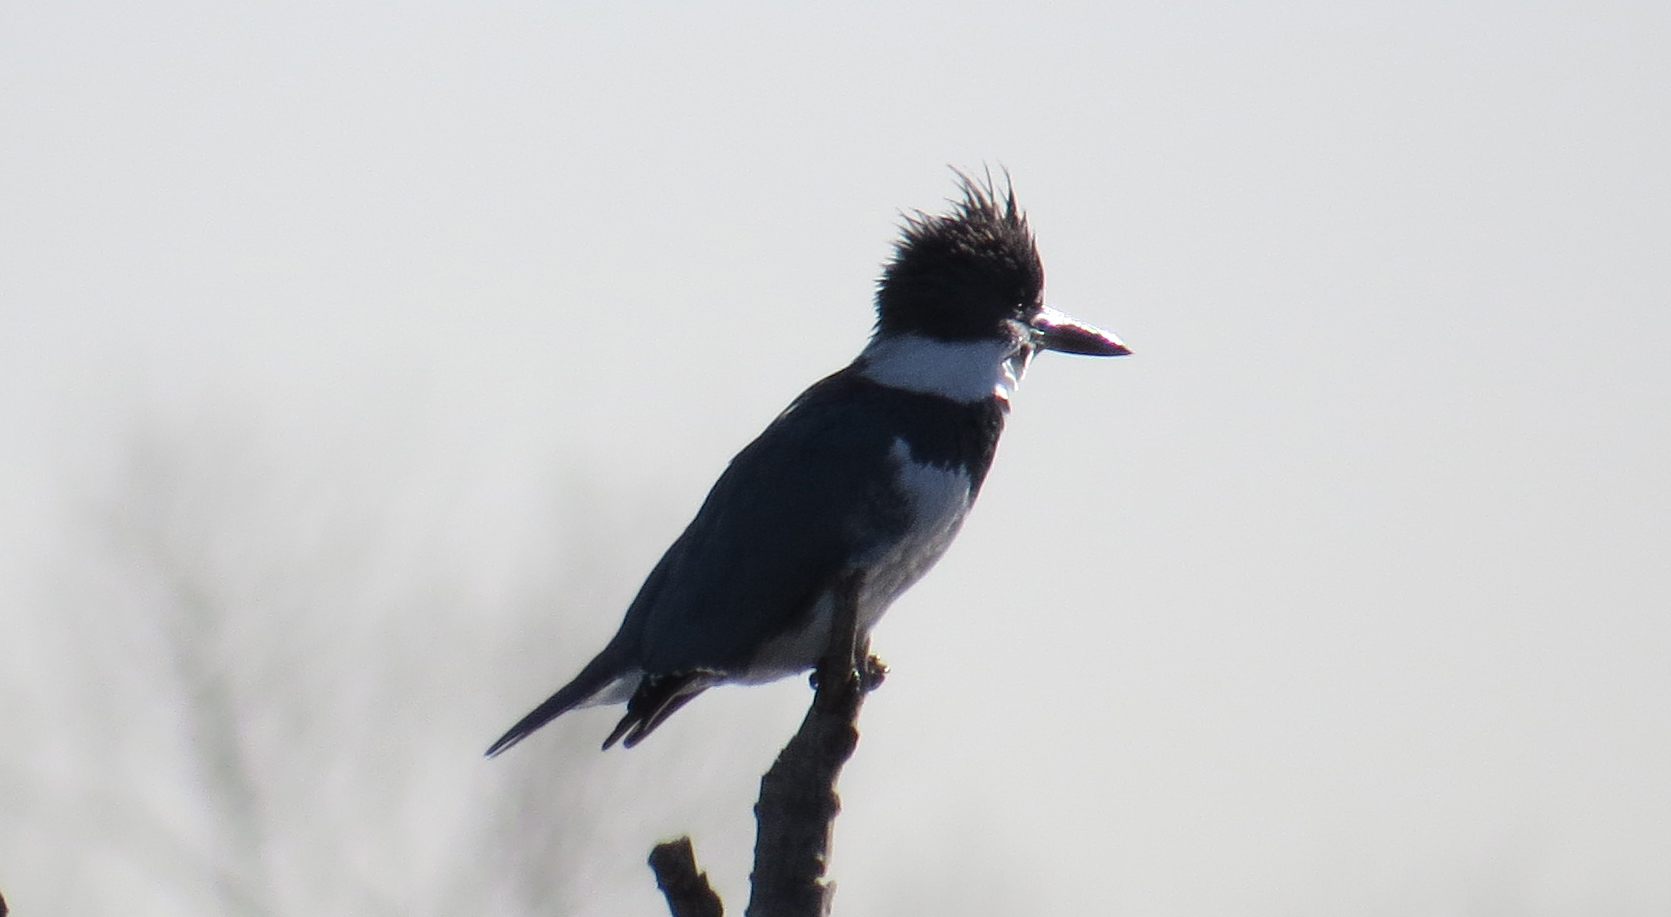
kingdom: Animalia
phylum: Chordata
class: Aves
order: Coraciiformes
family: Alcedinidae
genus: Megaceryle
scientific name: Megaceryle alcyon
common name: Belted kingfisher
